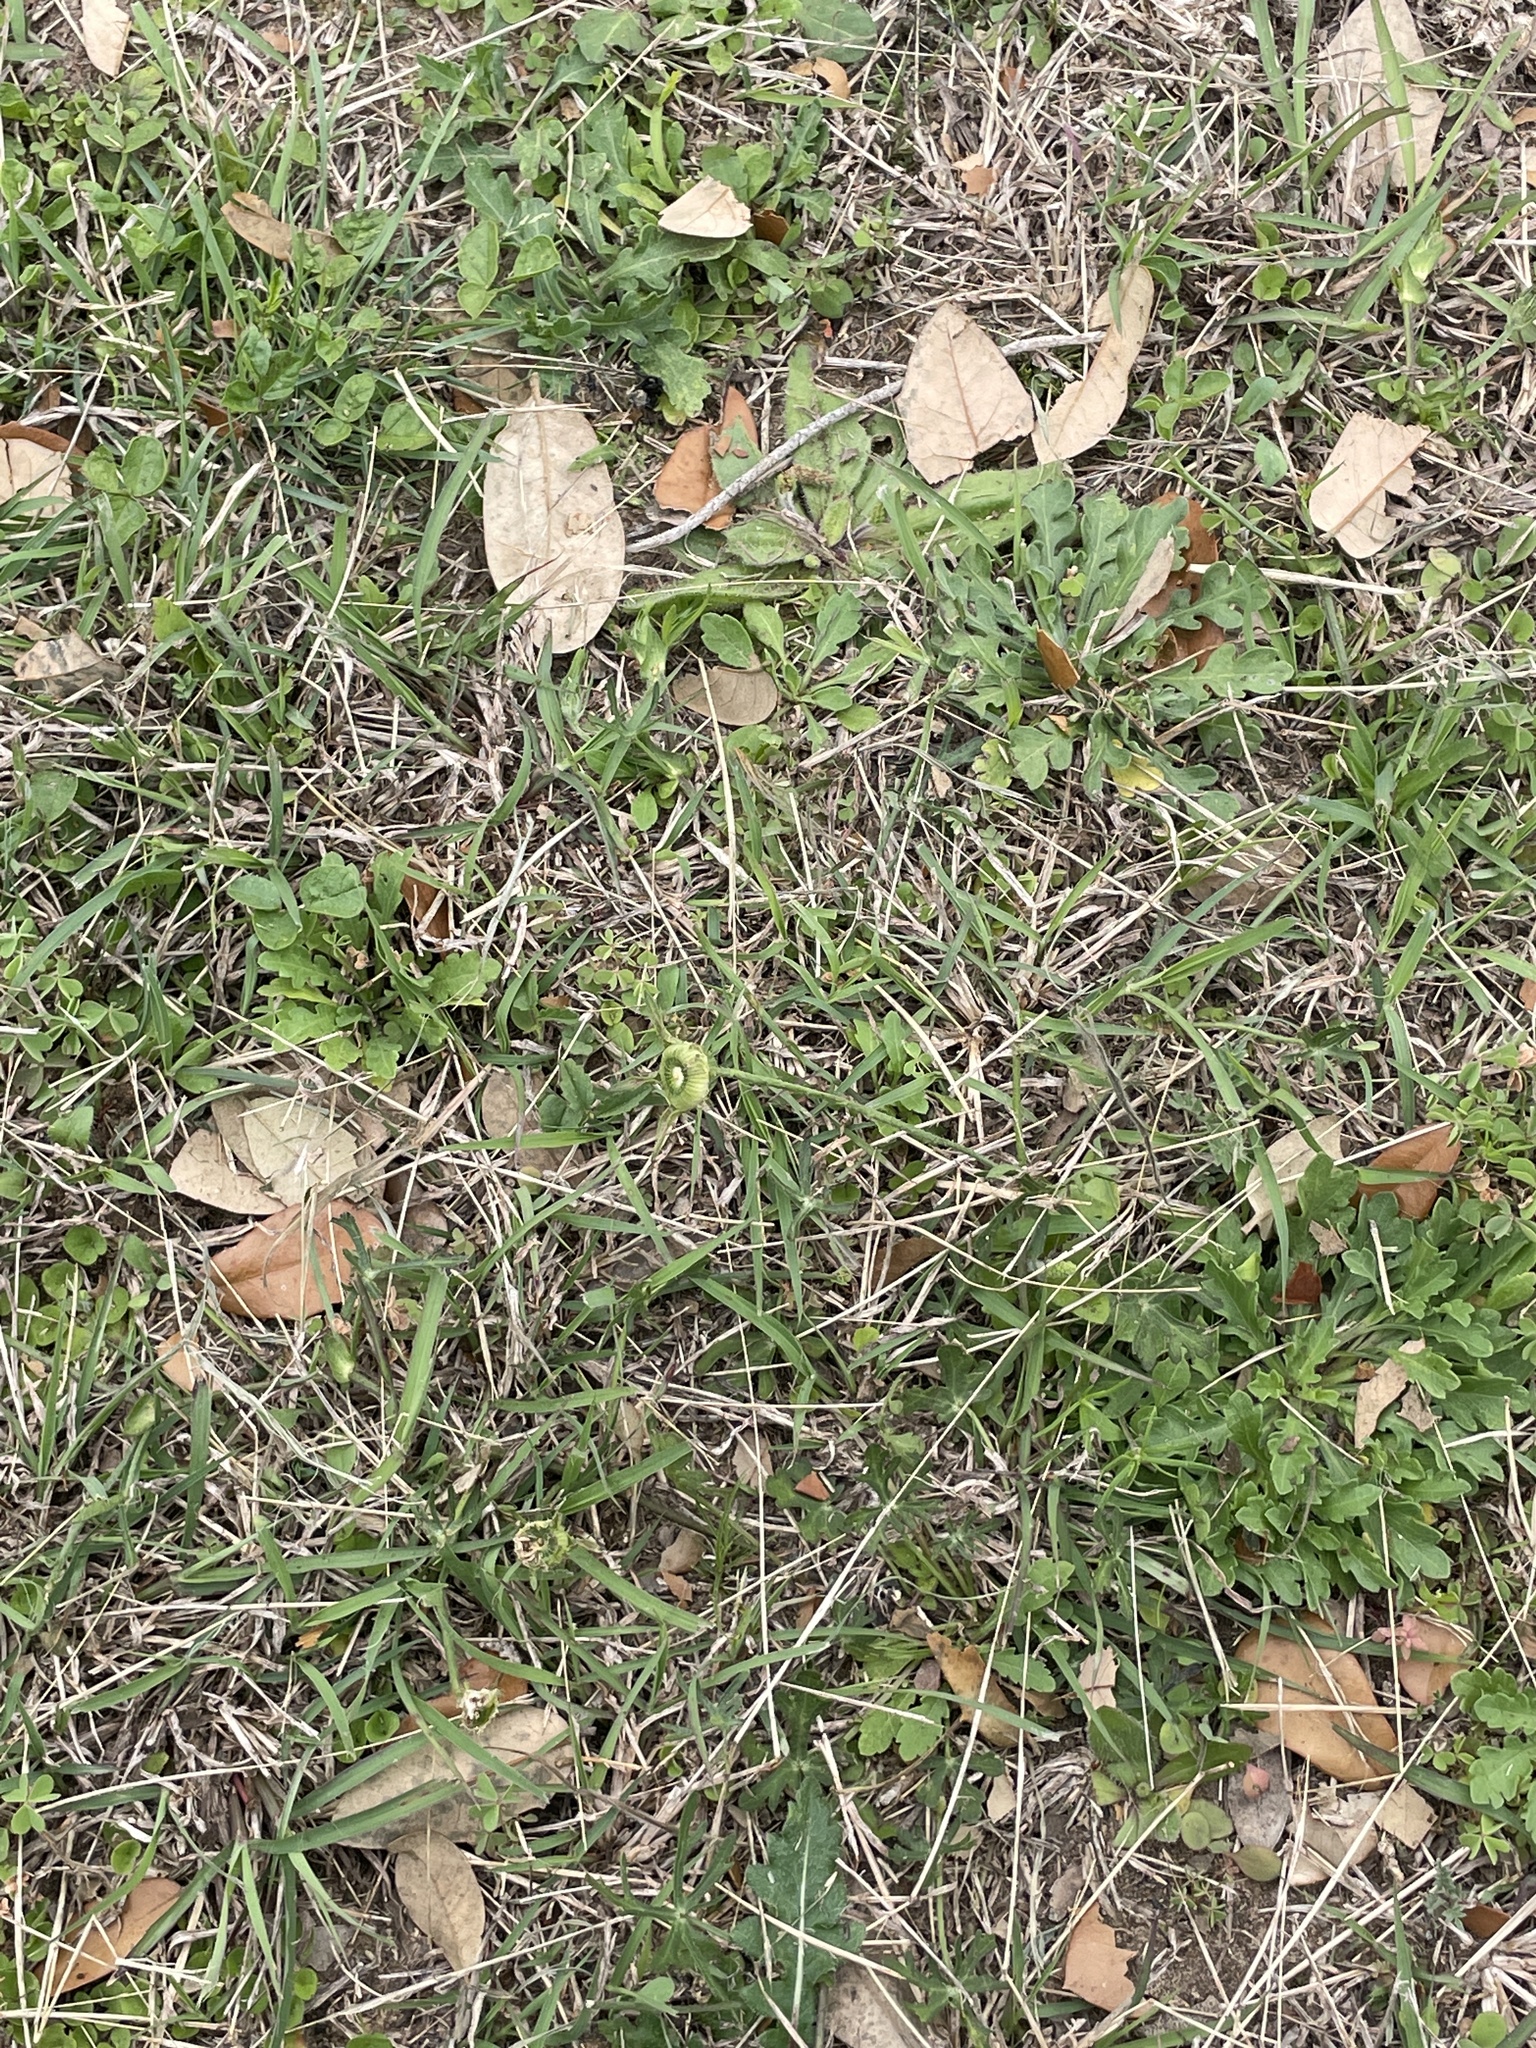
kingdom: Plantae
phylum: Tracheophyta
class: Magnoliopsida
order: Malvales
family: Malvaceae
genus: Callirhoe
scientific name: Callirhoe involucrata
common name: Purple poppy-mallow
